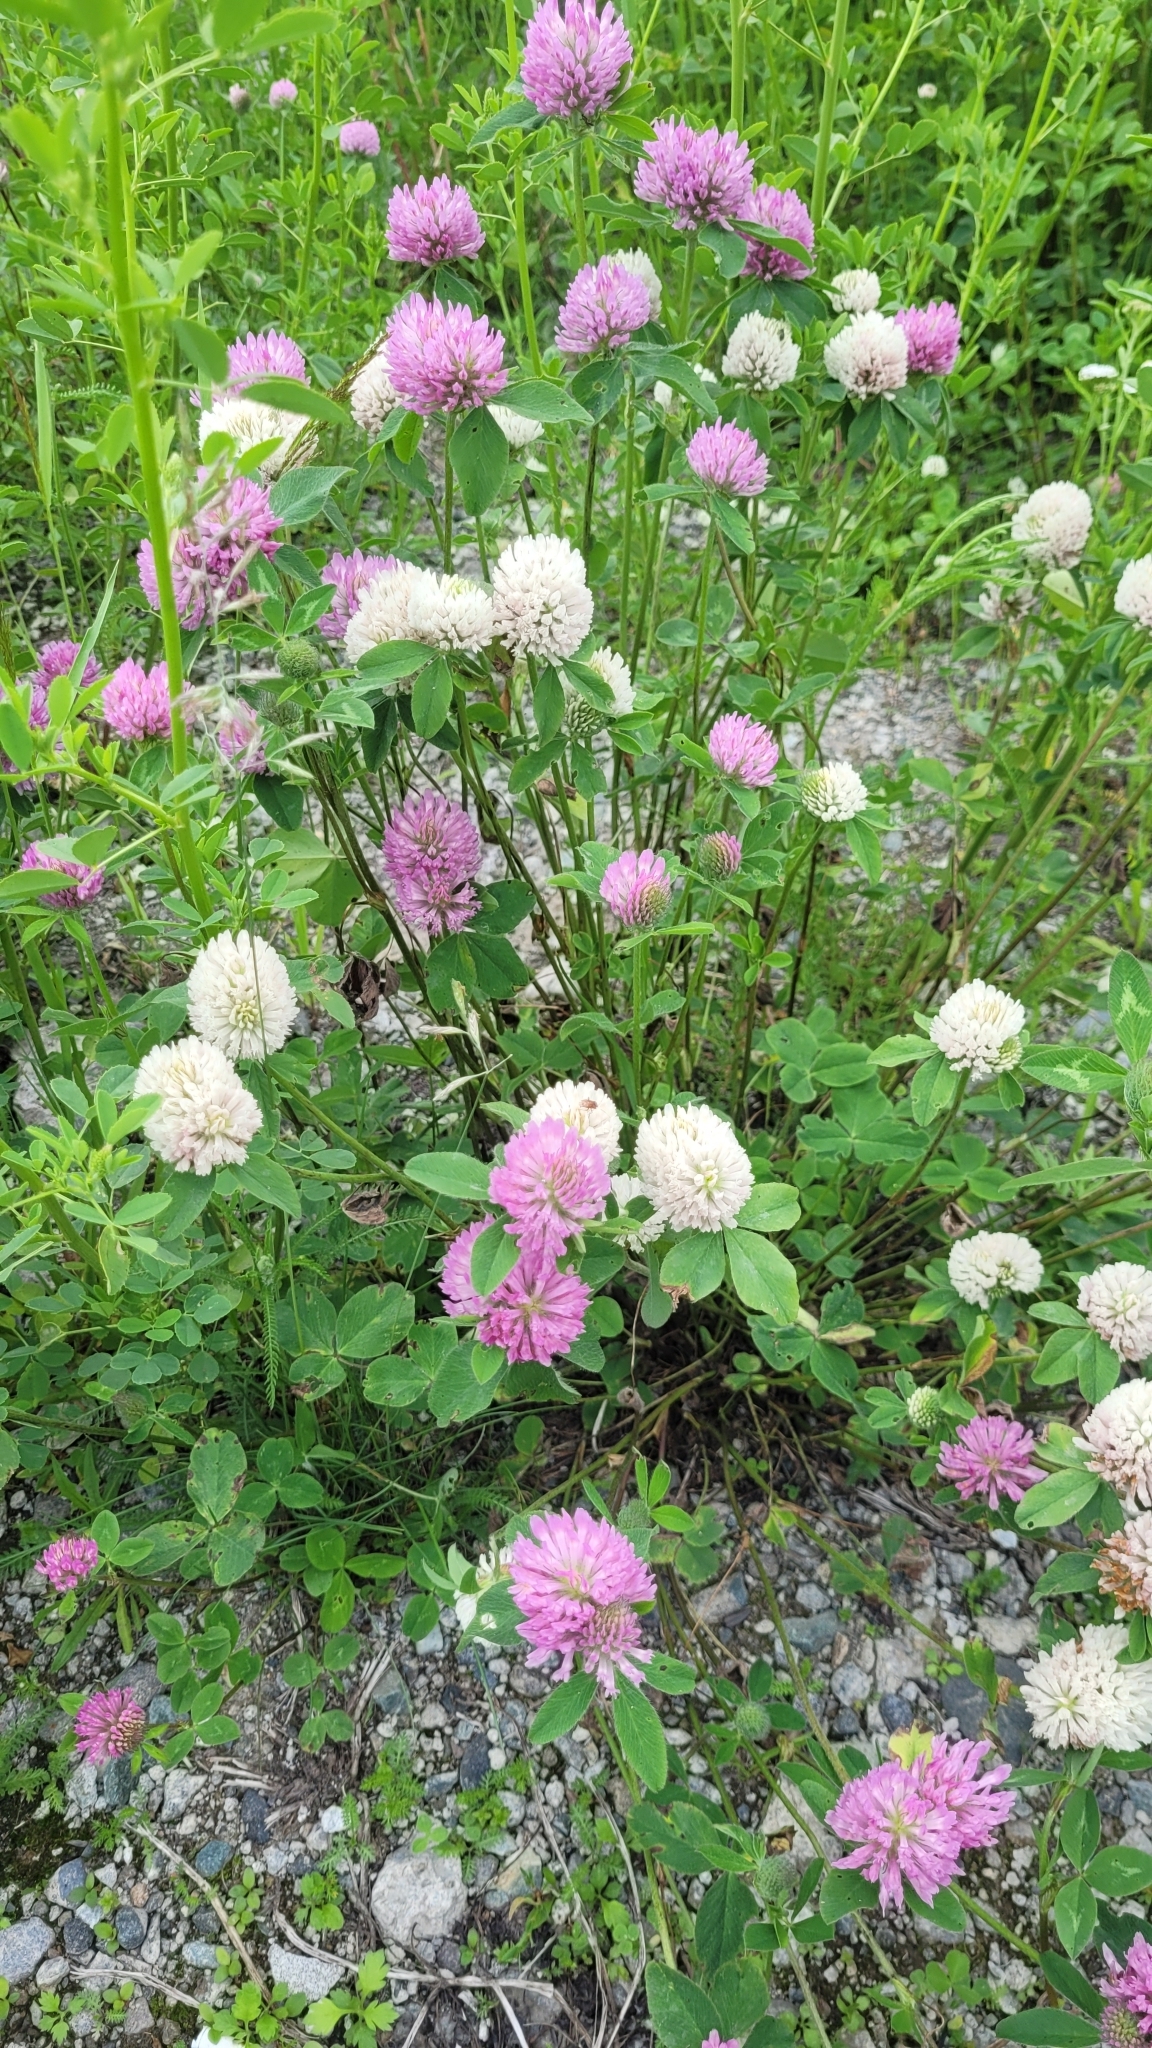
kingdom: Plantae
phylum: Tracheophyta
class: Magnoliopsida
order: Fabales
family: Fabaceae
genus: Trifolium
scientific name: Trifolium pratense
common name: Red clover
